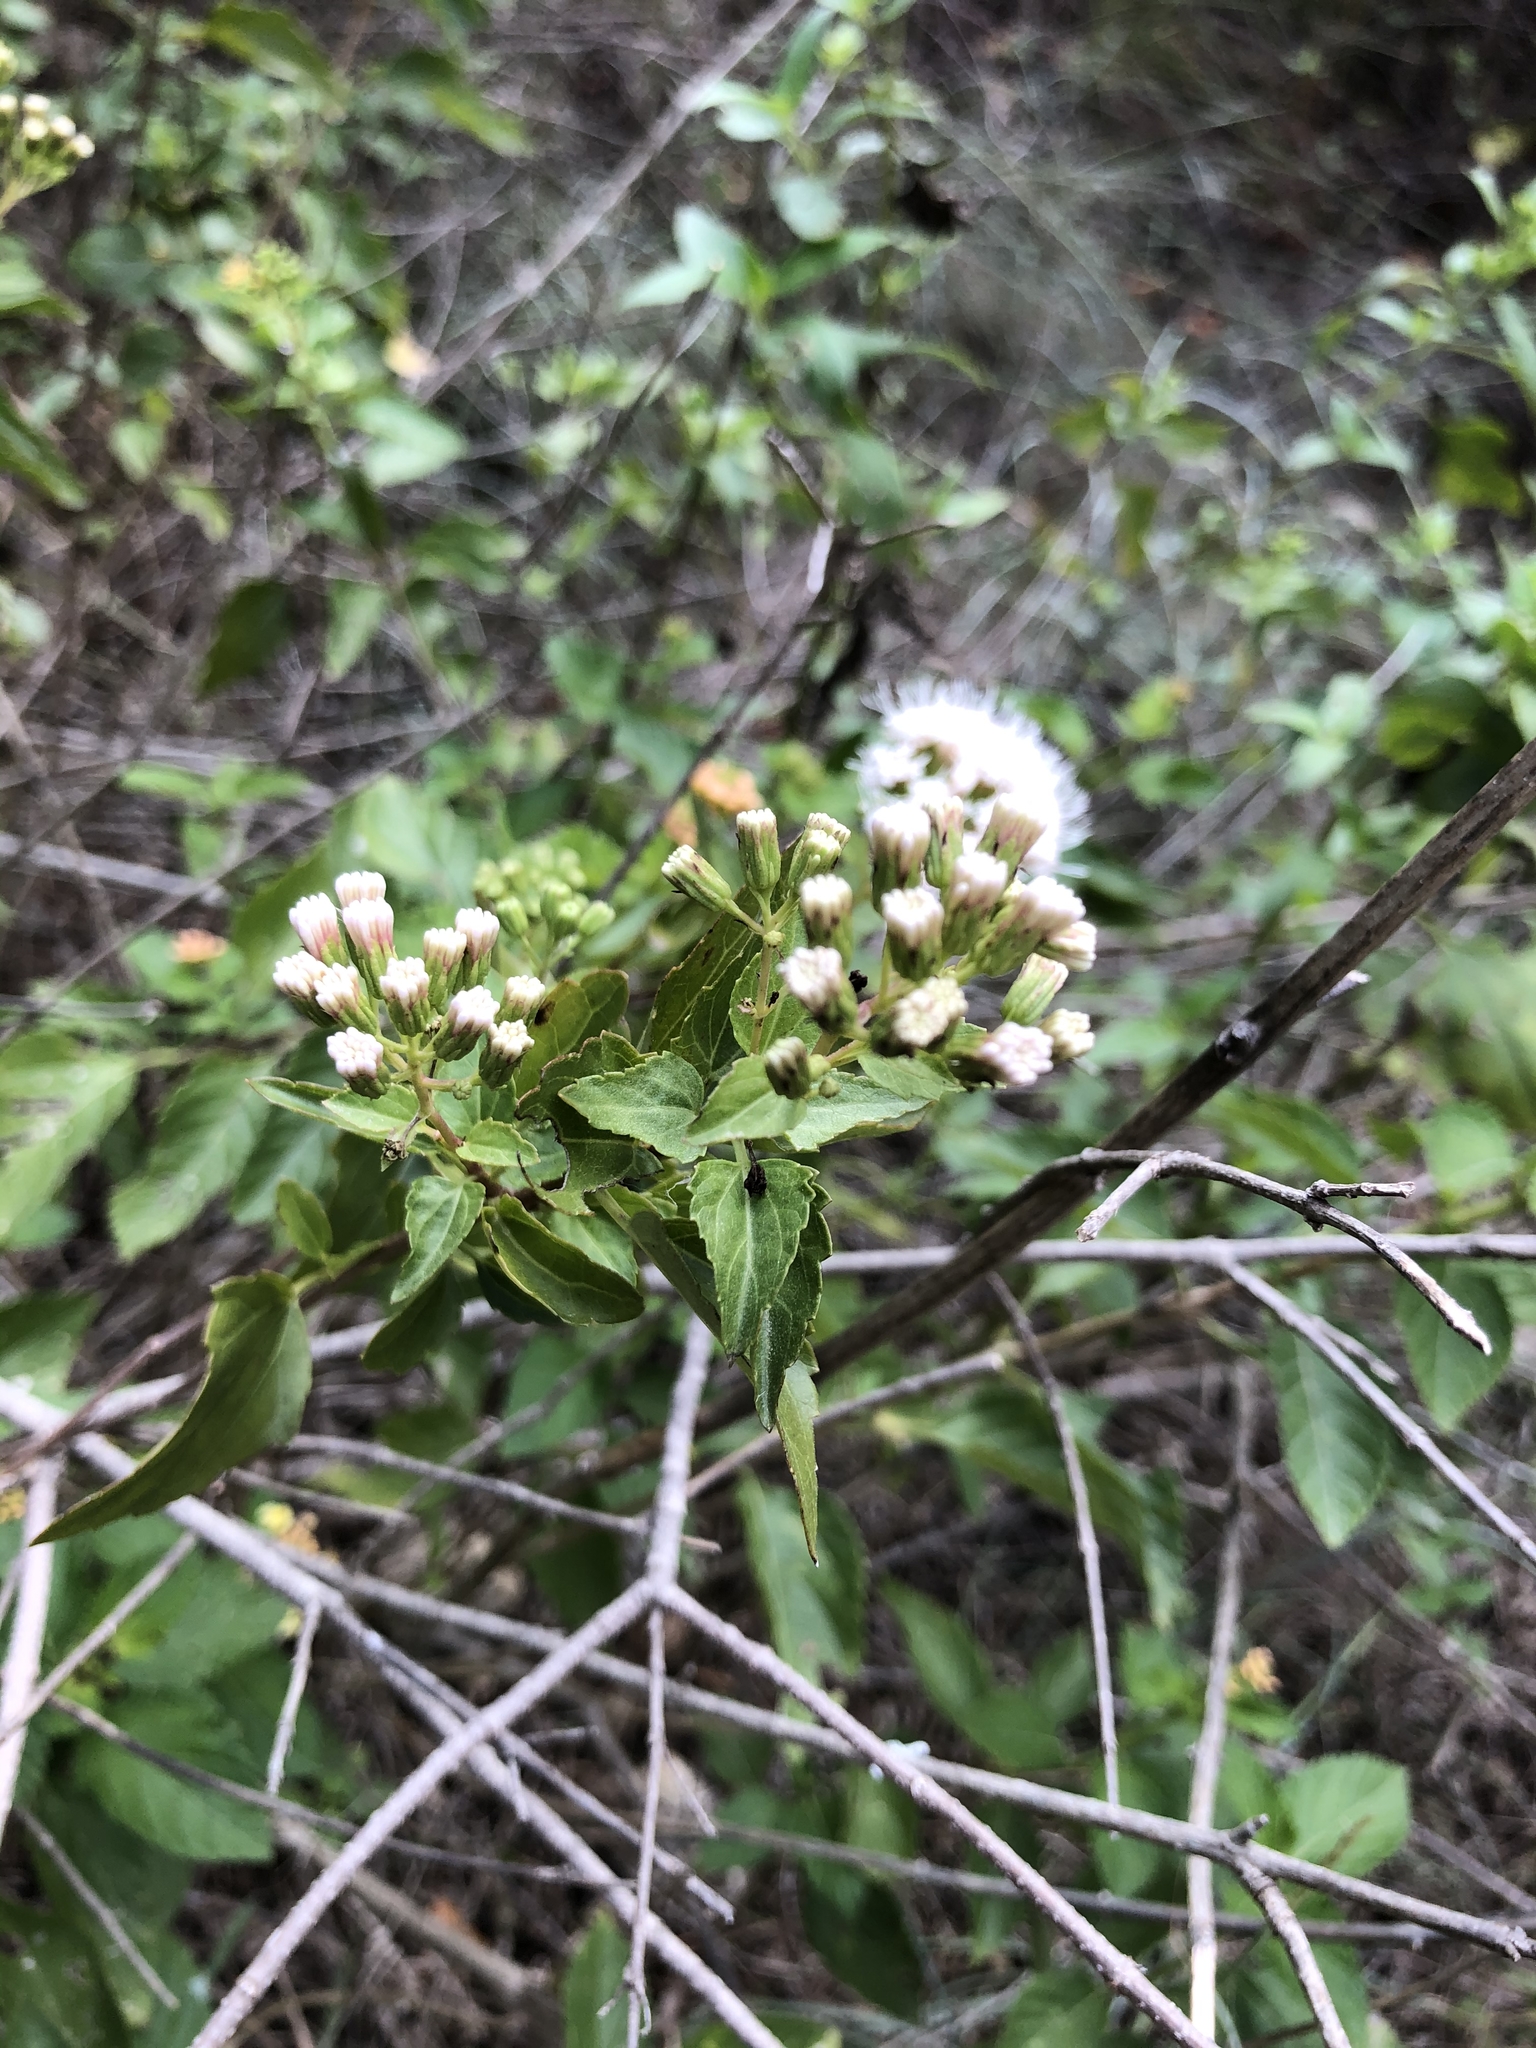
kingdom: Plantae
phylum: Tracheophyta
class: Magnoliopsida
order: Asterales
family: Asteraceae
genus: Ageratina
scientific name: Ageratina havanensis
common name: Havana snakeroot
